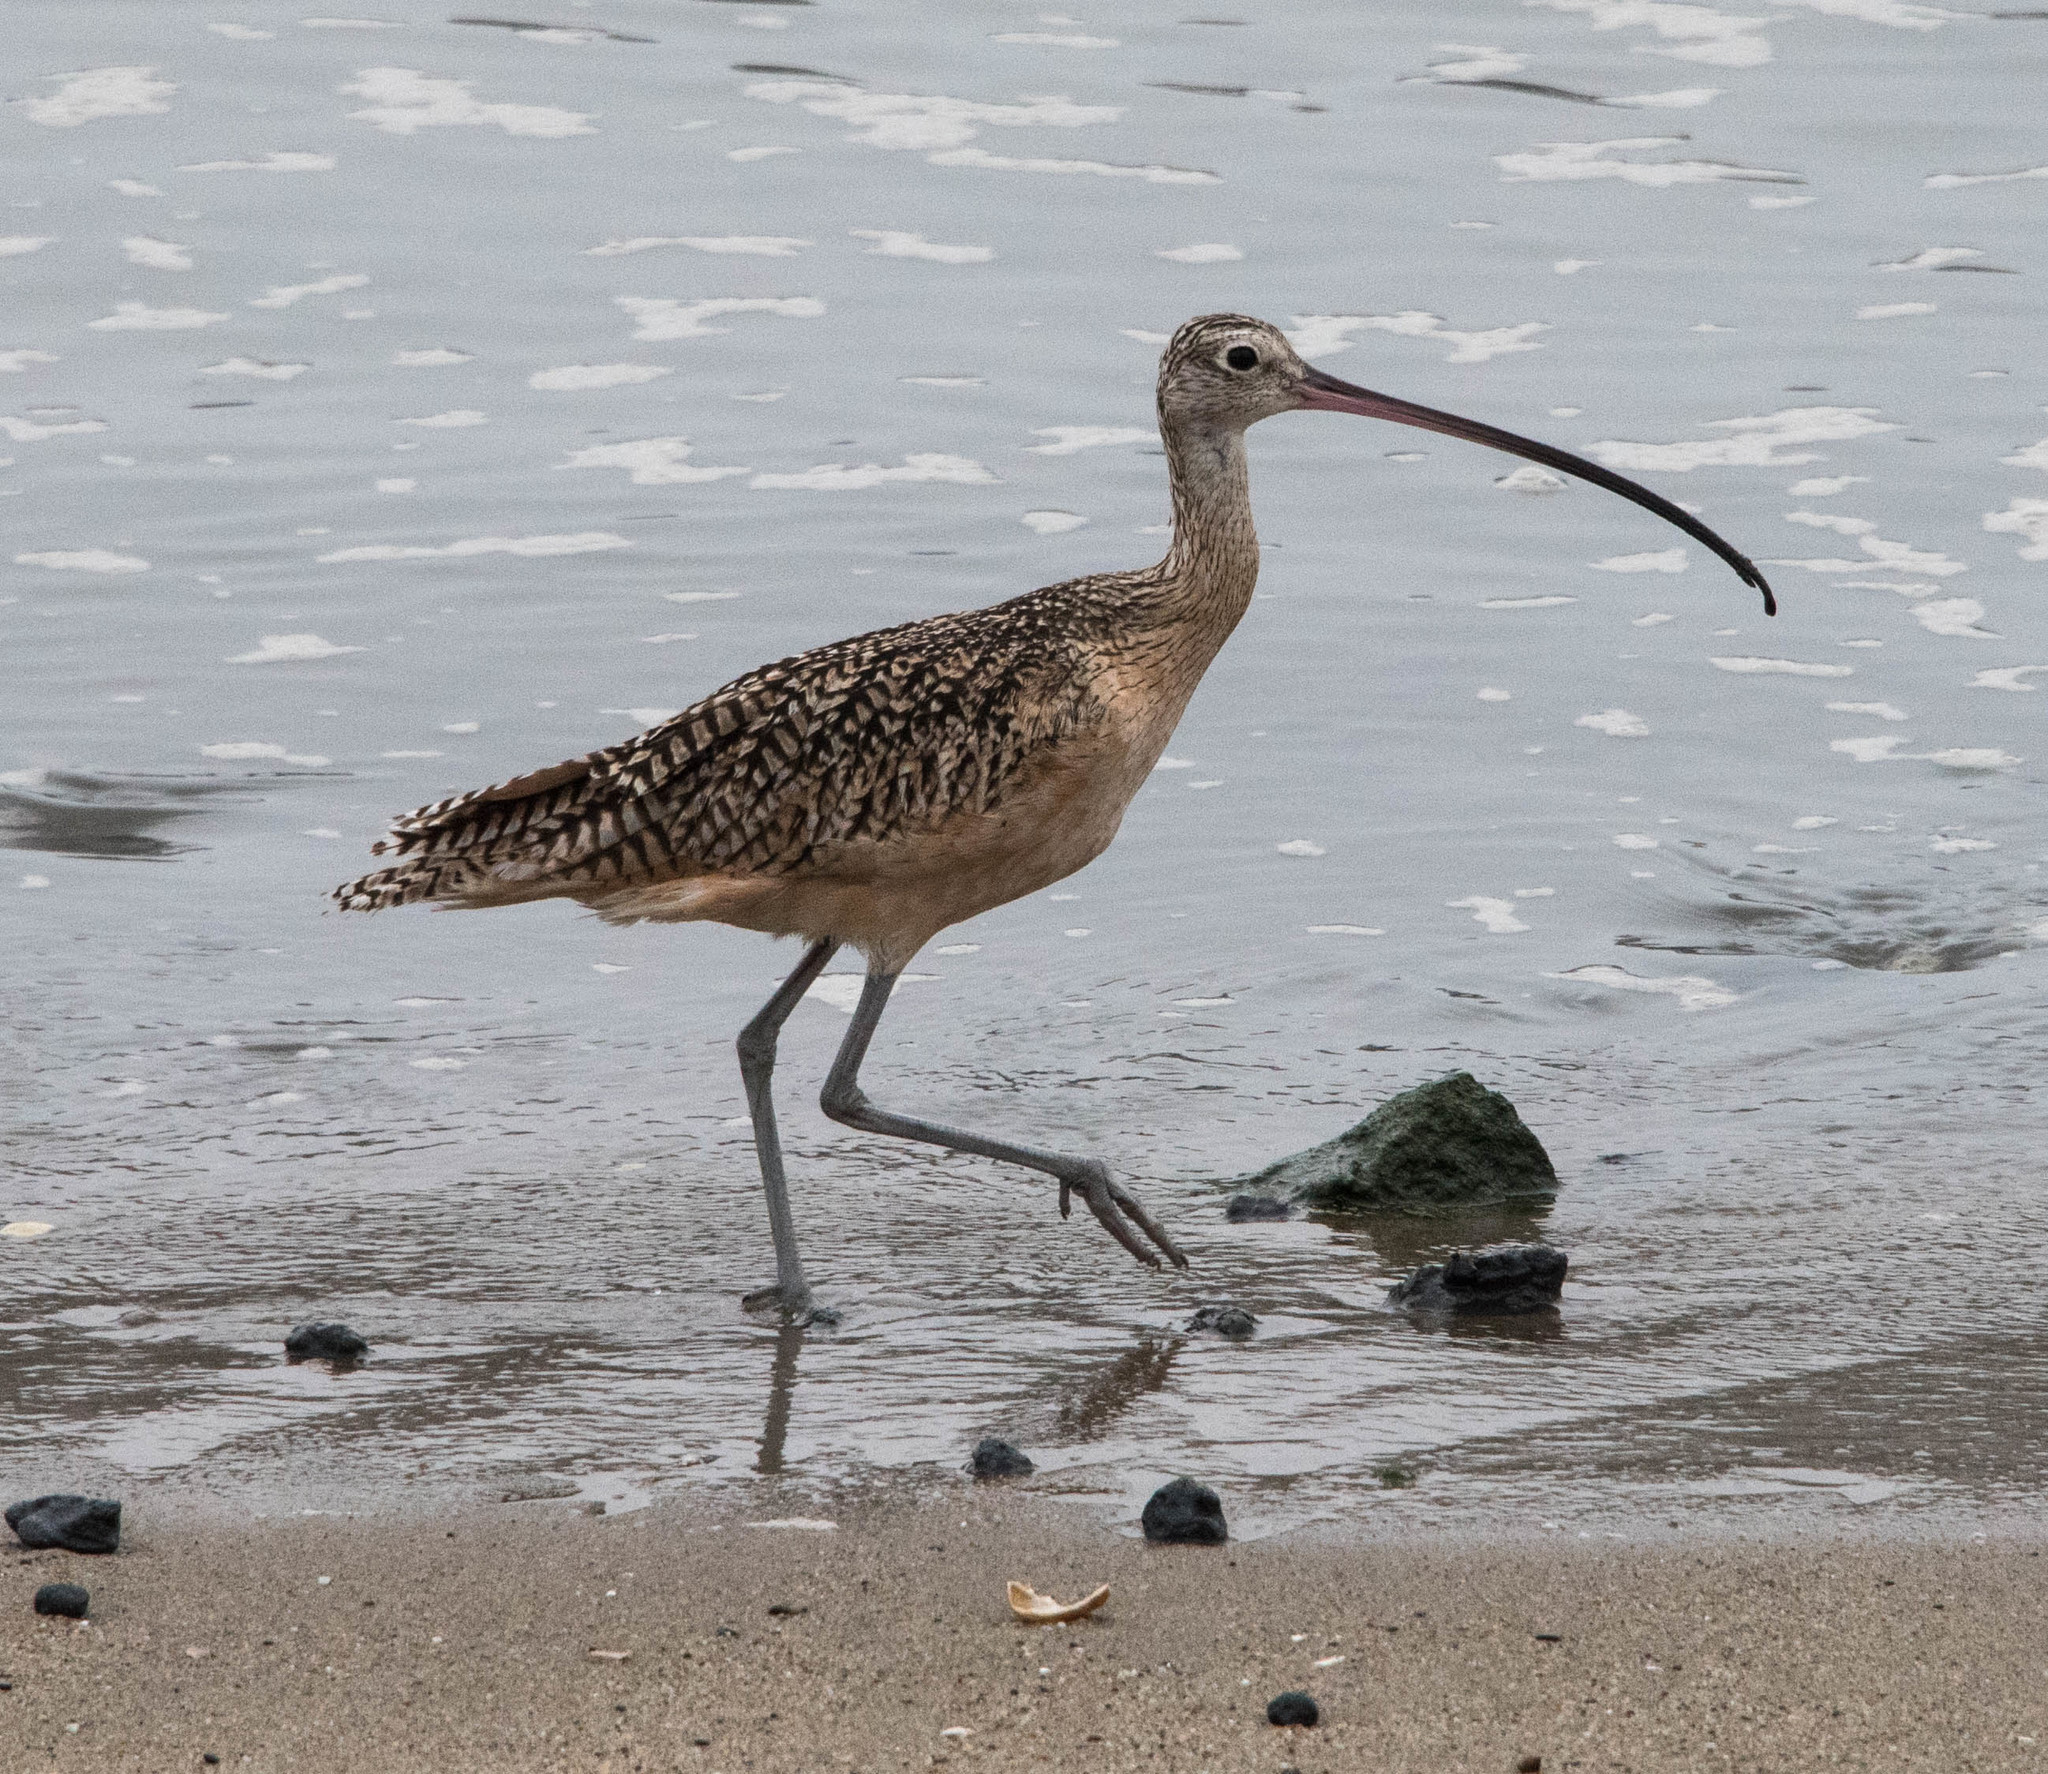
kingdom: Animalia
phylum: Chordata
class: Aves
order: Charadriiformes
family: Scolopacidae
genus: Numenius
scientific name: Numenius americanus
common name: Long-billed curlew
